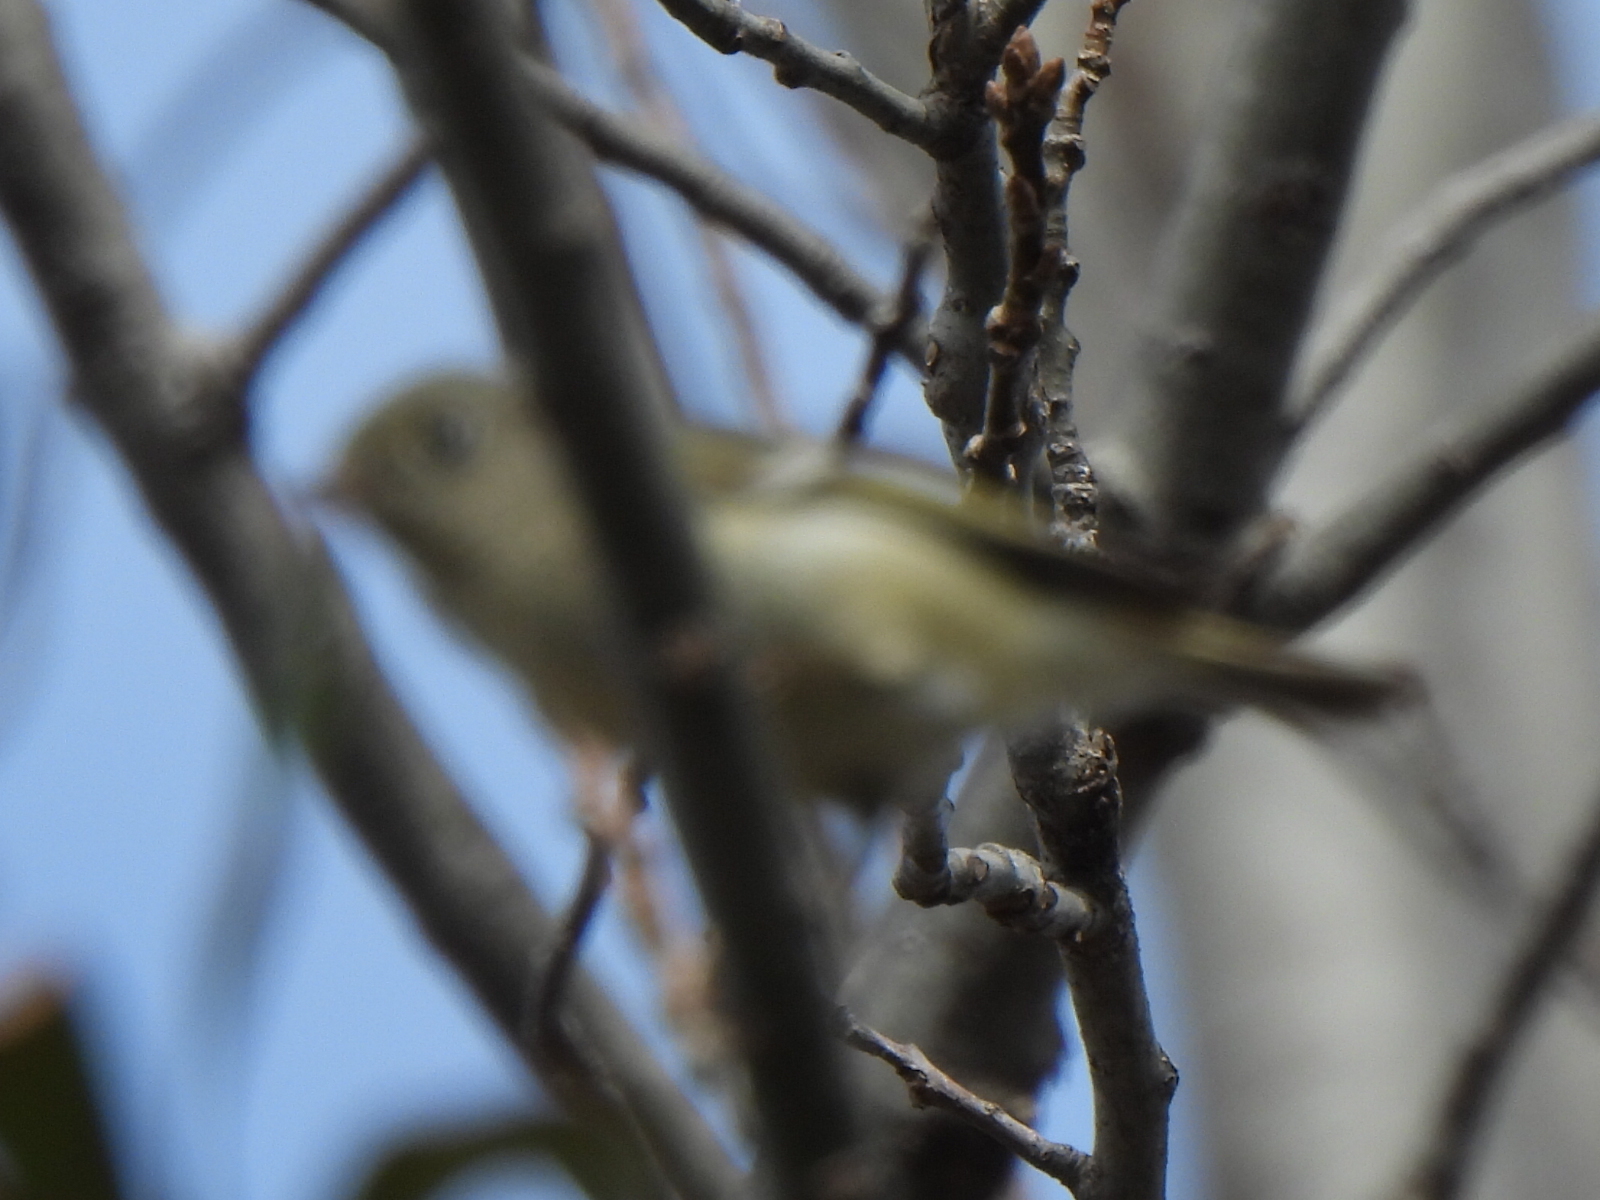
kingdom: Animalia
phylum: Chordata
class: Aves
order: Passeriformes
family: Regulidae
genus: Regulus
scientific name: Regulus calendula
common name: Ruby-crowned kinglet
